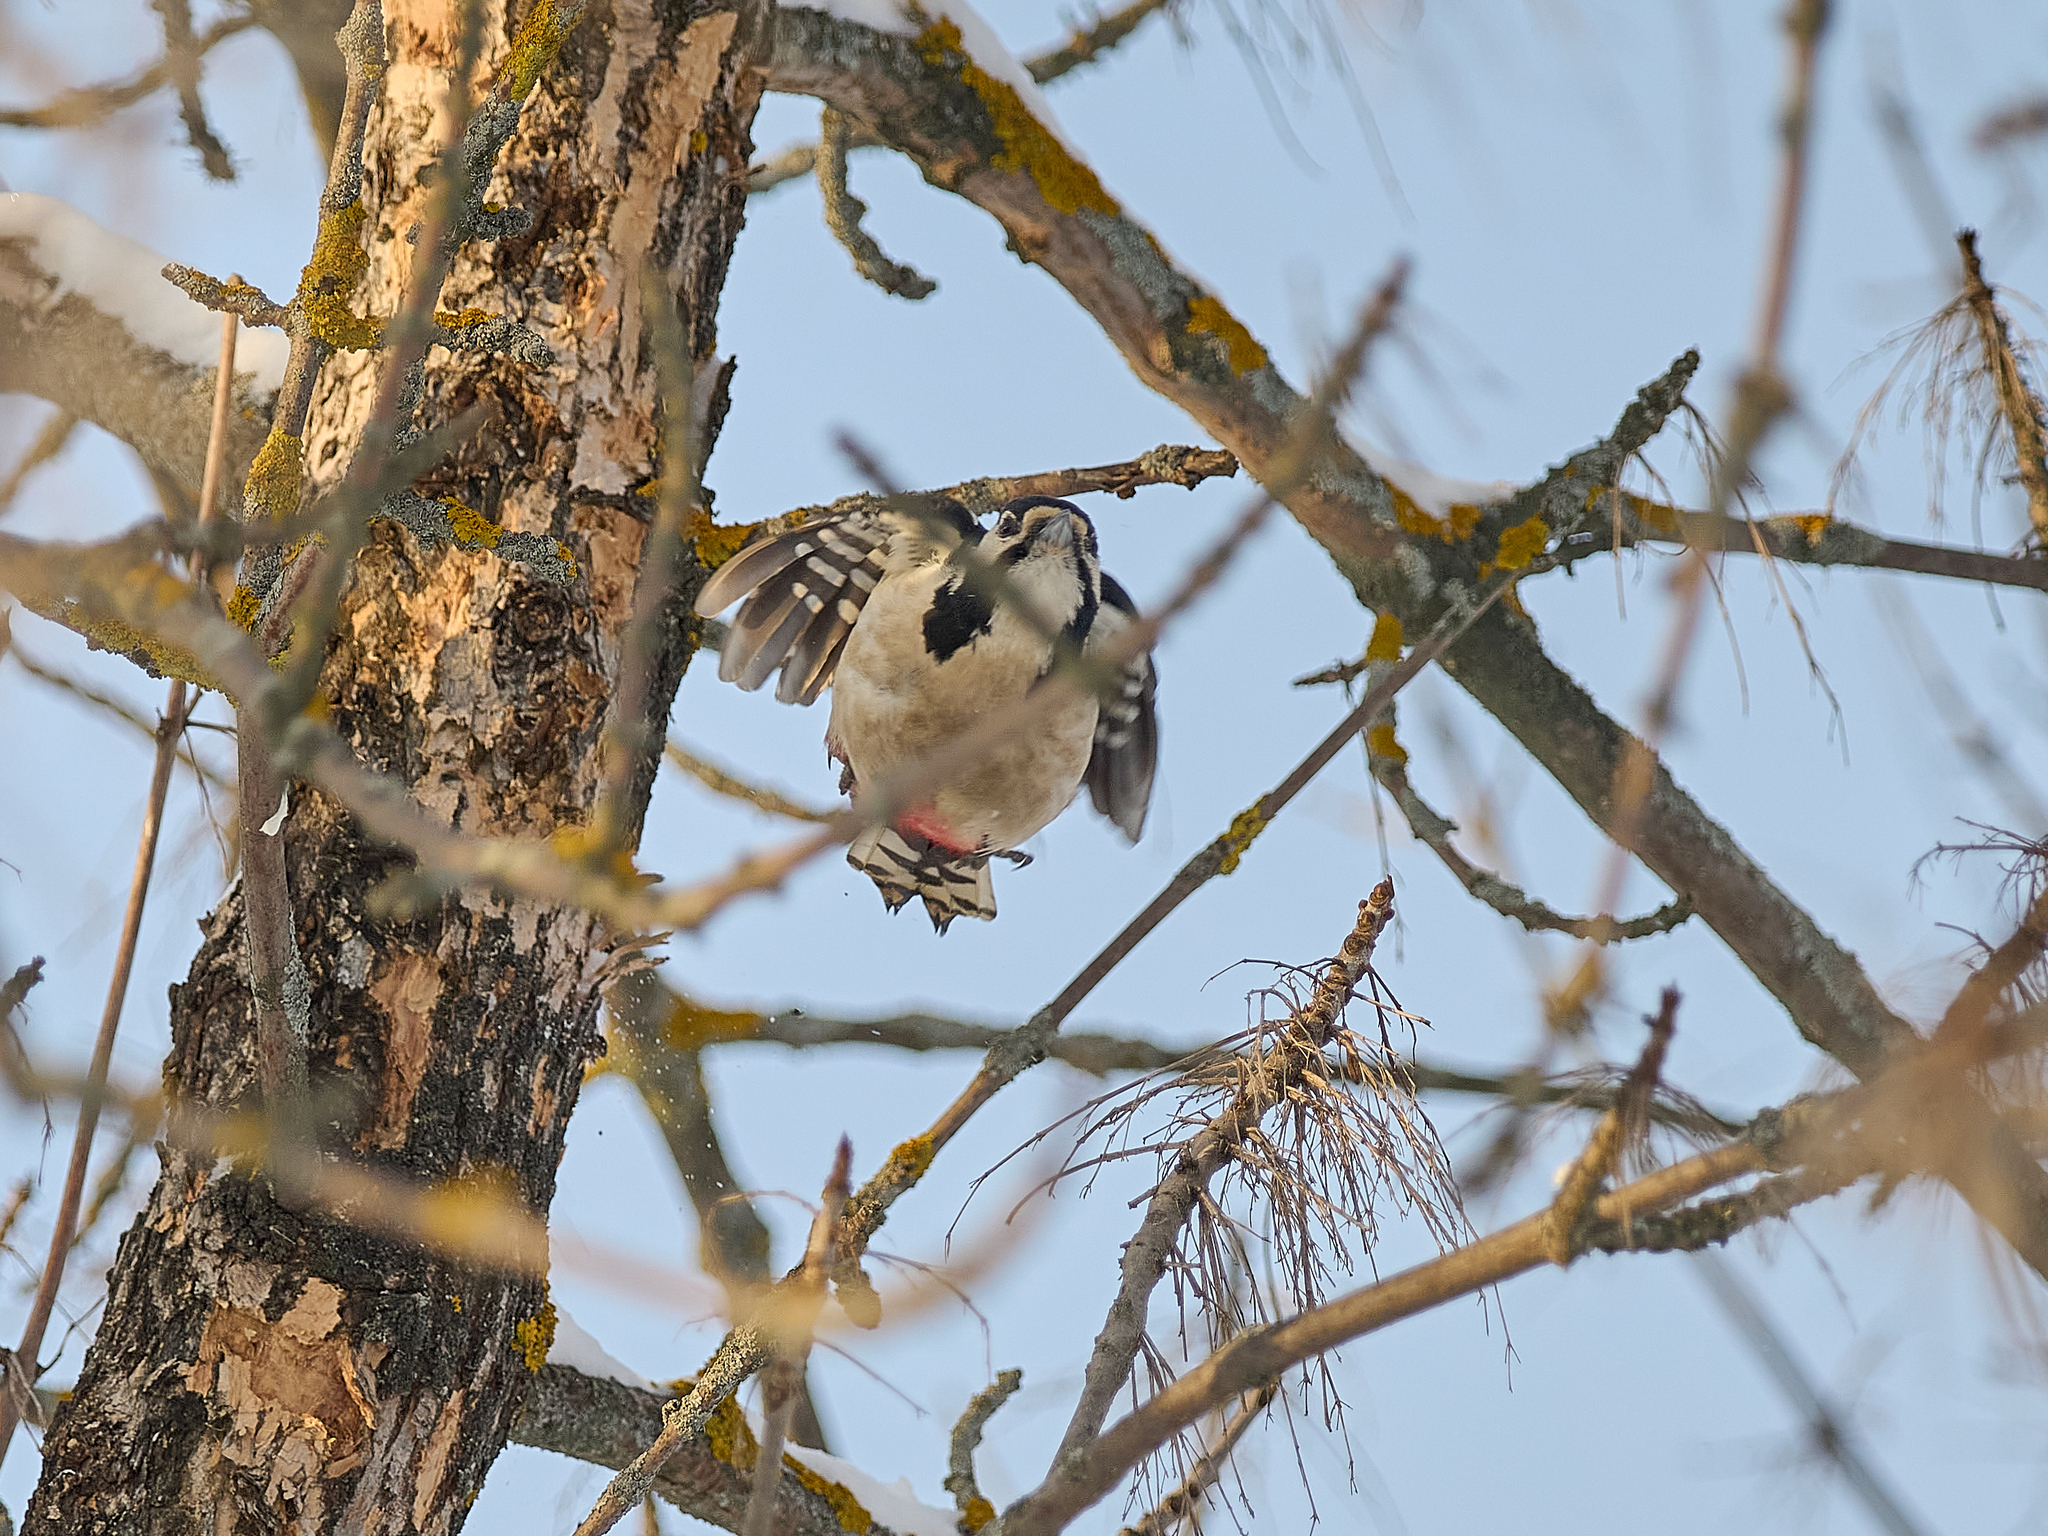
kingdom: Animalia
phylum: Chordata
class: Aves
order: Piciformes
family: Picidae
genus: Dendrocopos
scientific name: Dendrocopos major
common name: Great spotted woodpecker
